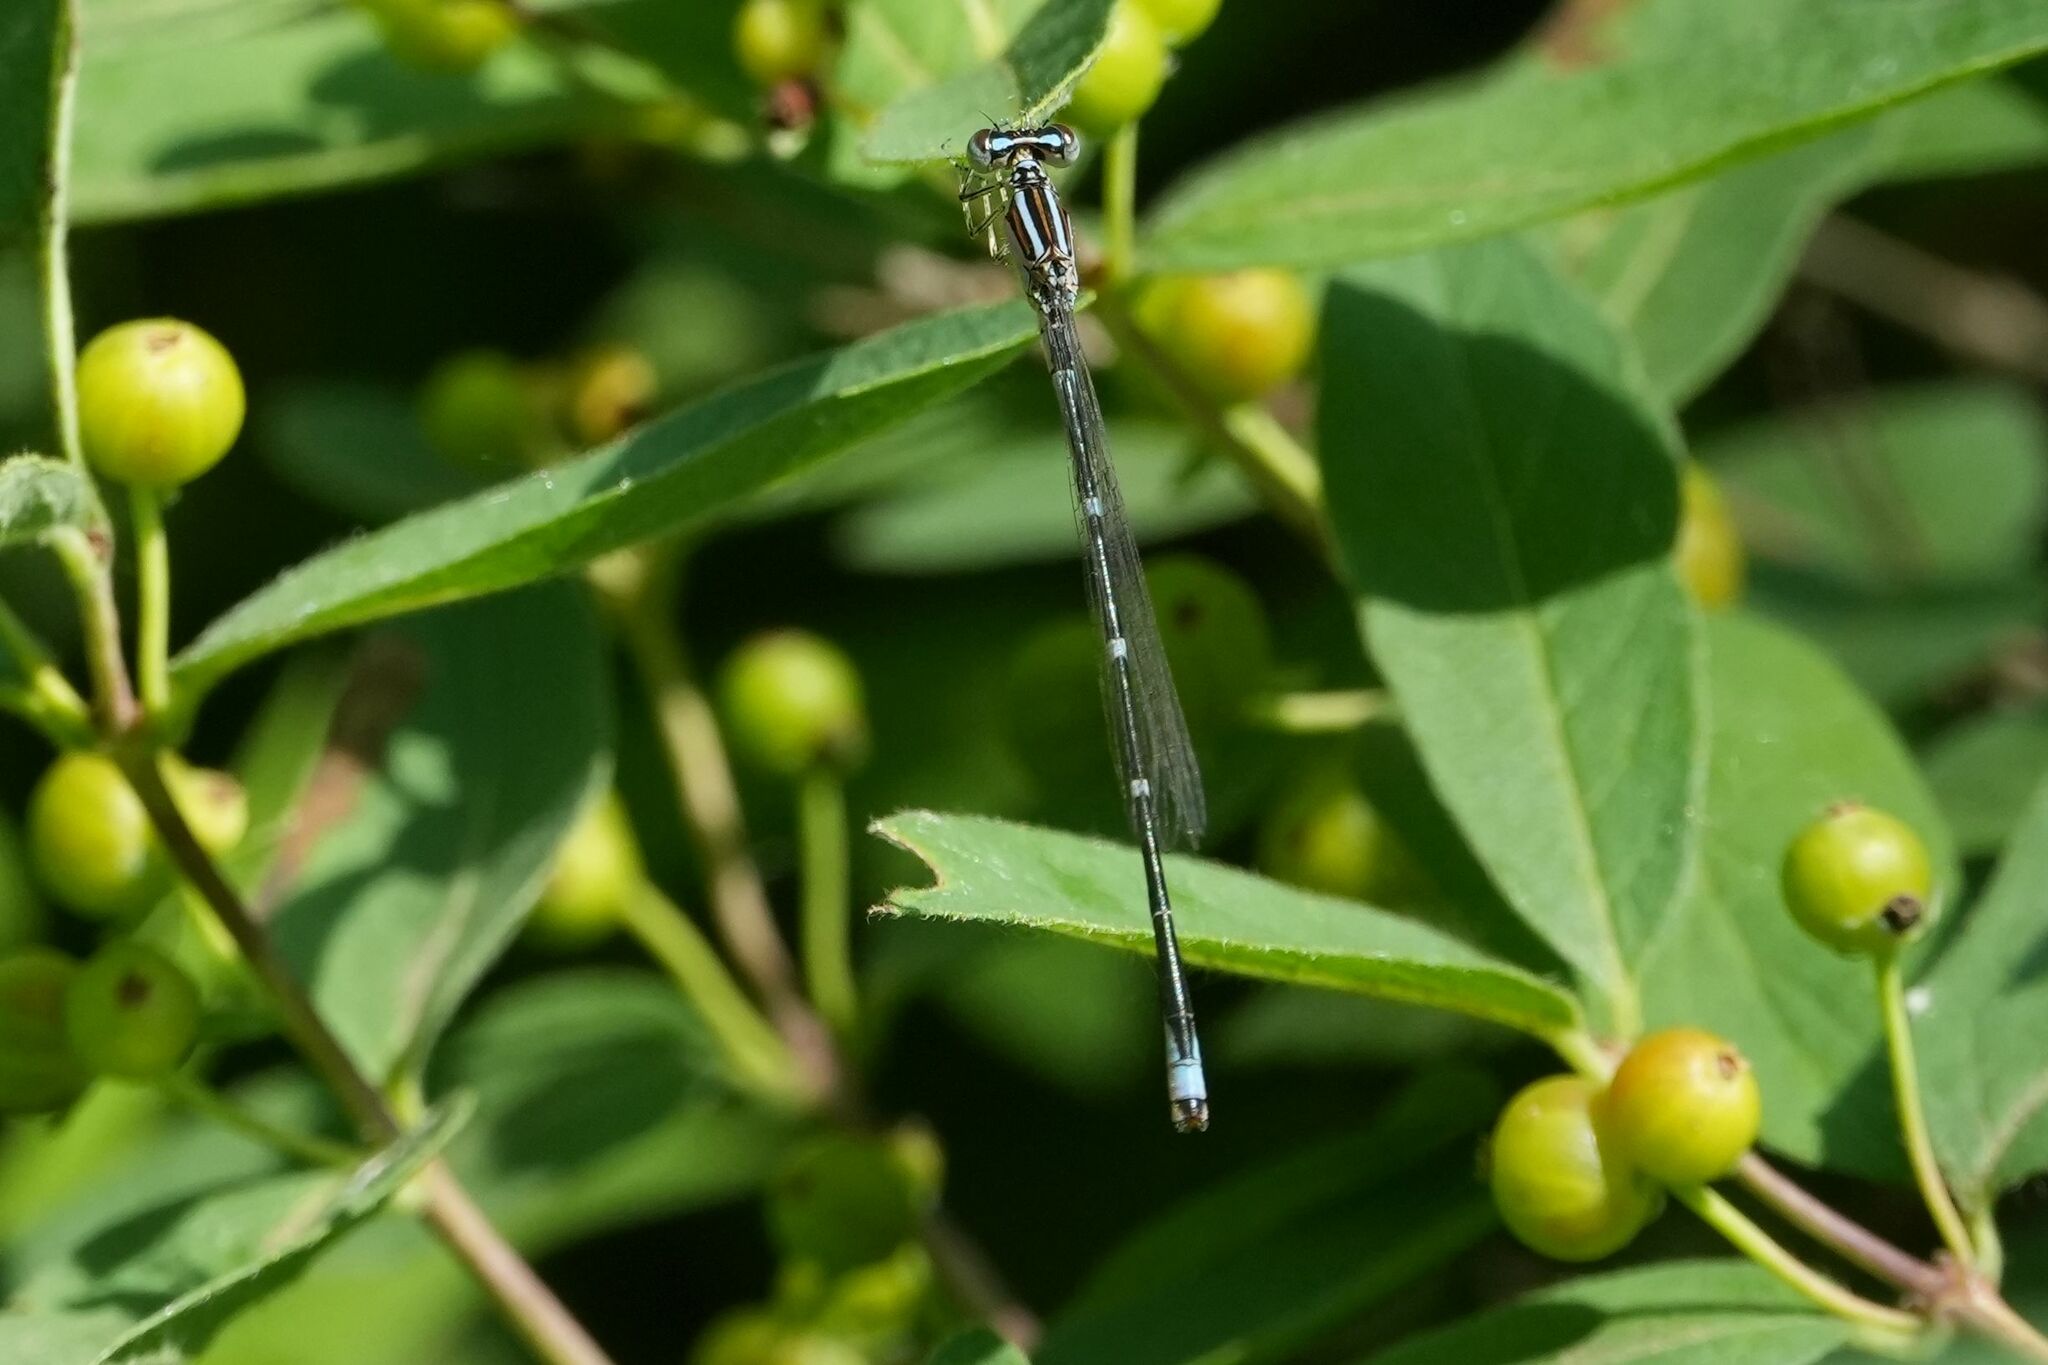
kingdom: Animalia
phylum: Arthropoda
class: Insecta
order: Odonata
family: Coenagrionidae
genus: Enallagma
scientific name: Enallagma exsulans
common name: Stream bluet
